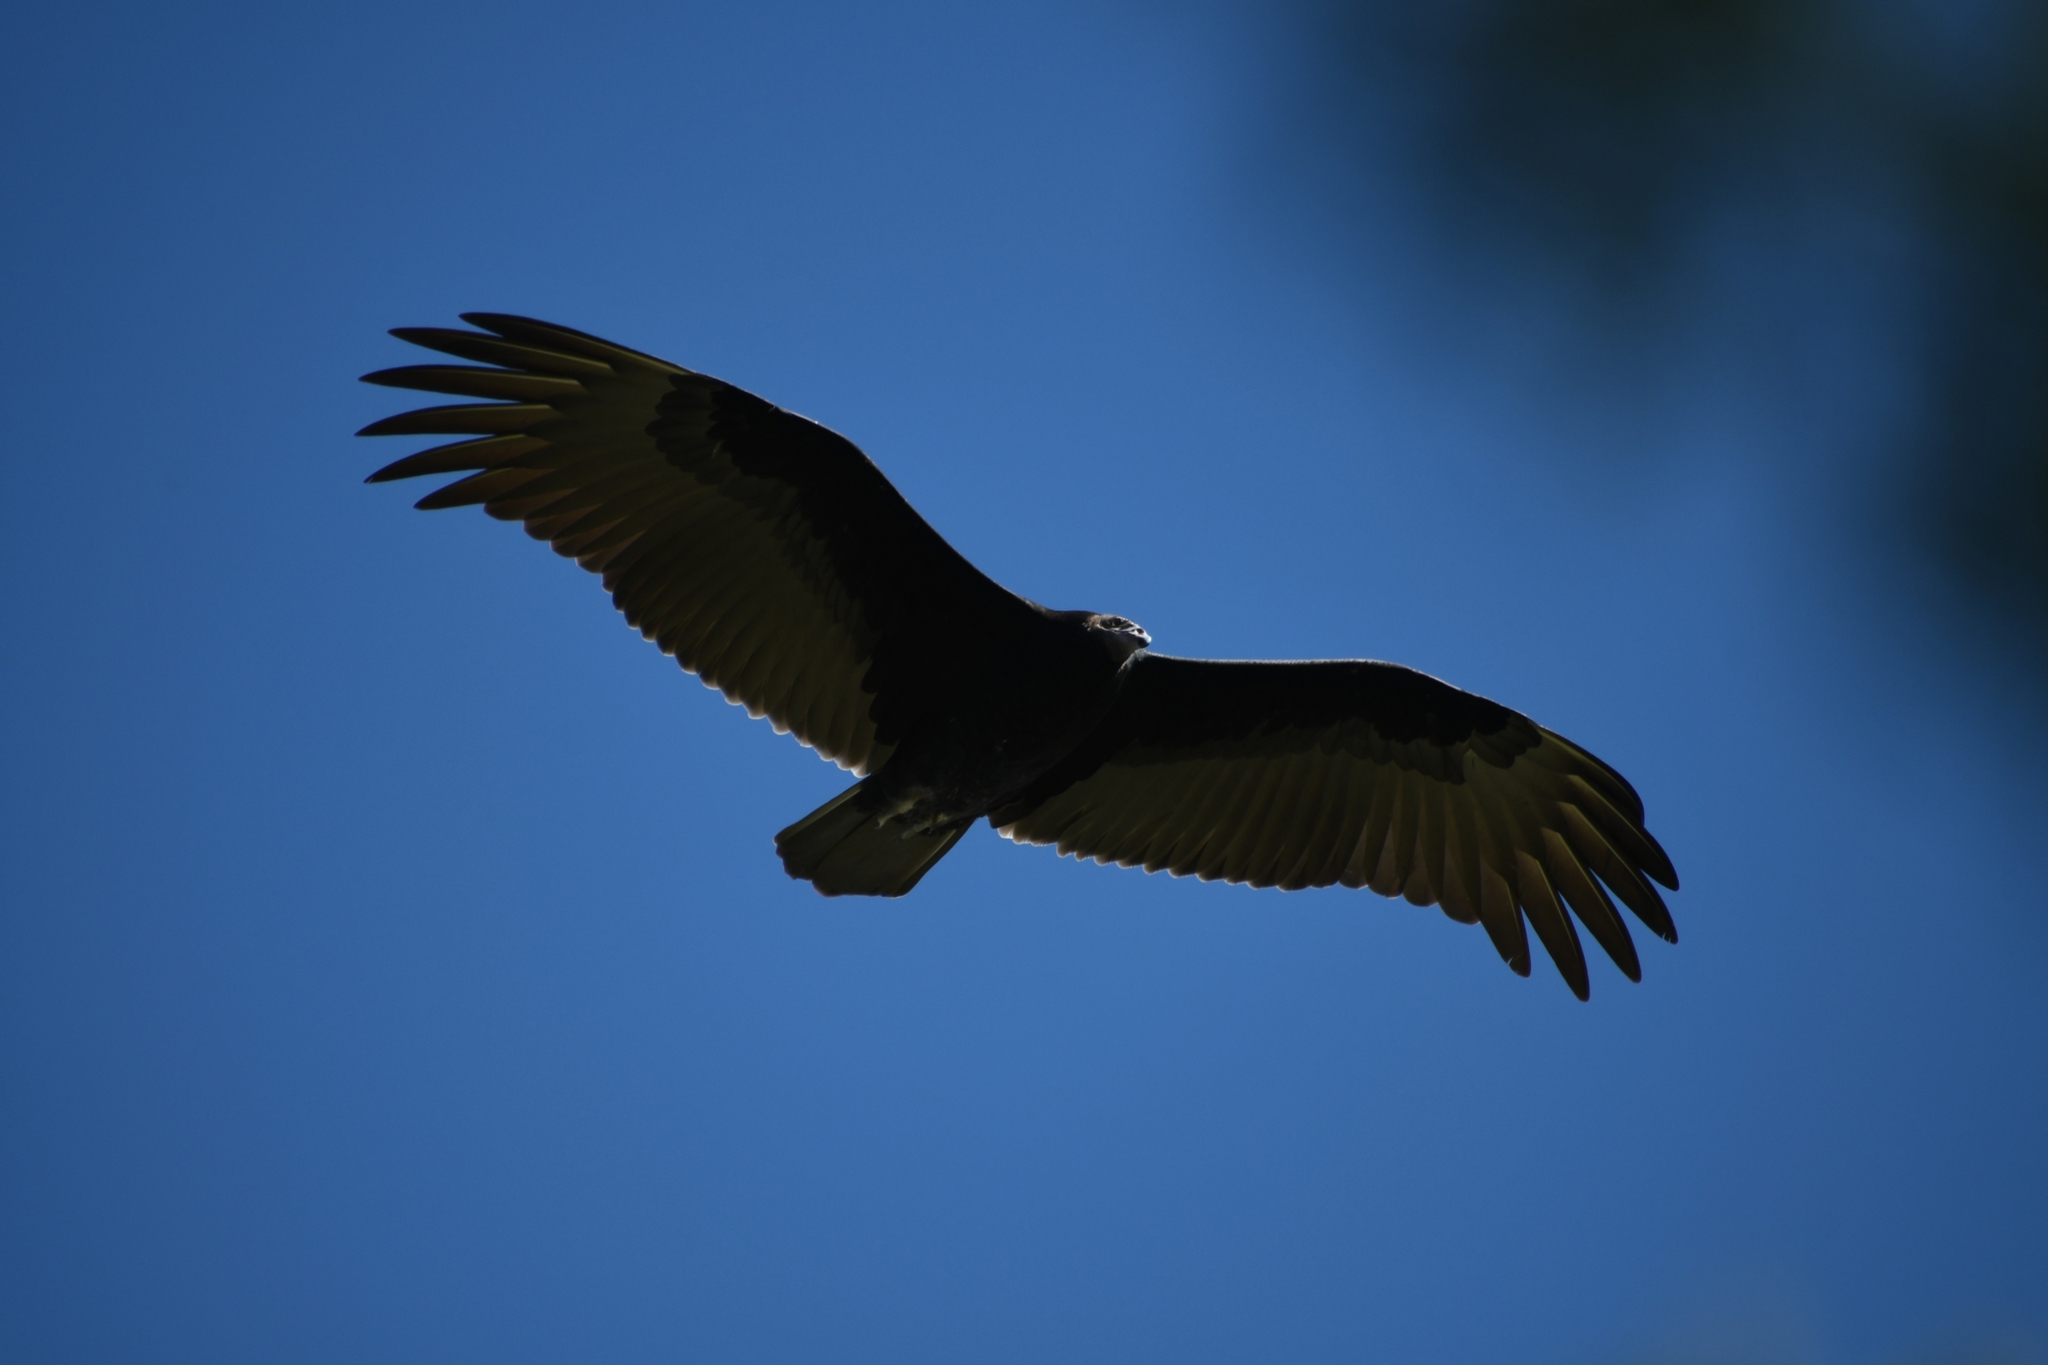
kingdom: Animalia
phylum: Chordata
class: Aves
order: Accipitriformes
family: Cathartidae
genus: Cathartes
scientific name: Cathartes aura
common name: Turkey vulture
